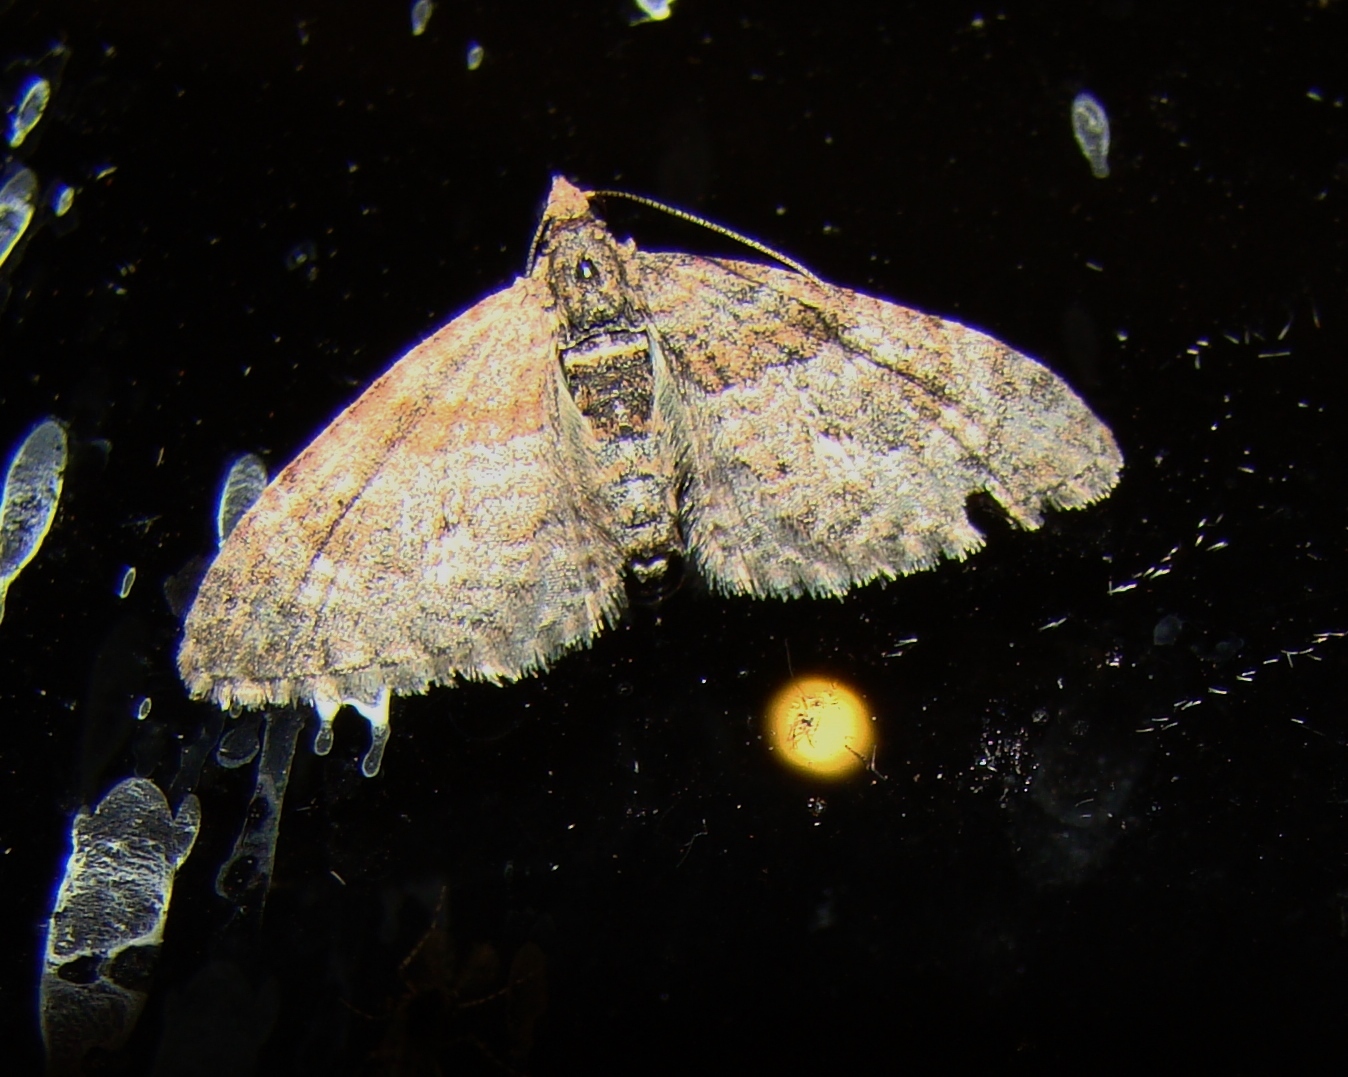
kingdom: Animalia
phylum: Arthropoda
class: Insecta
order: Lepidoptera
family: Geometridae
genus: Phrissogonus
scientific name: Phrissogonus laticostata
